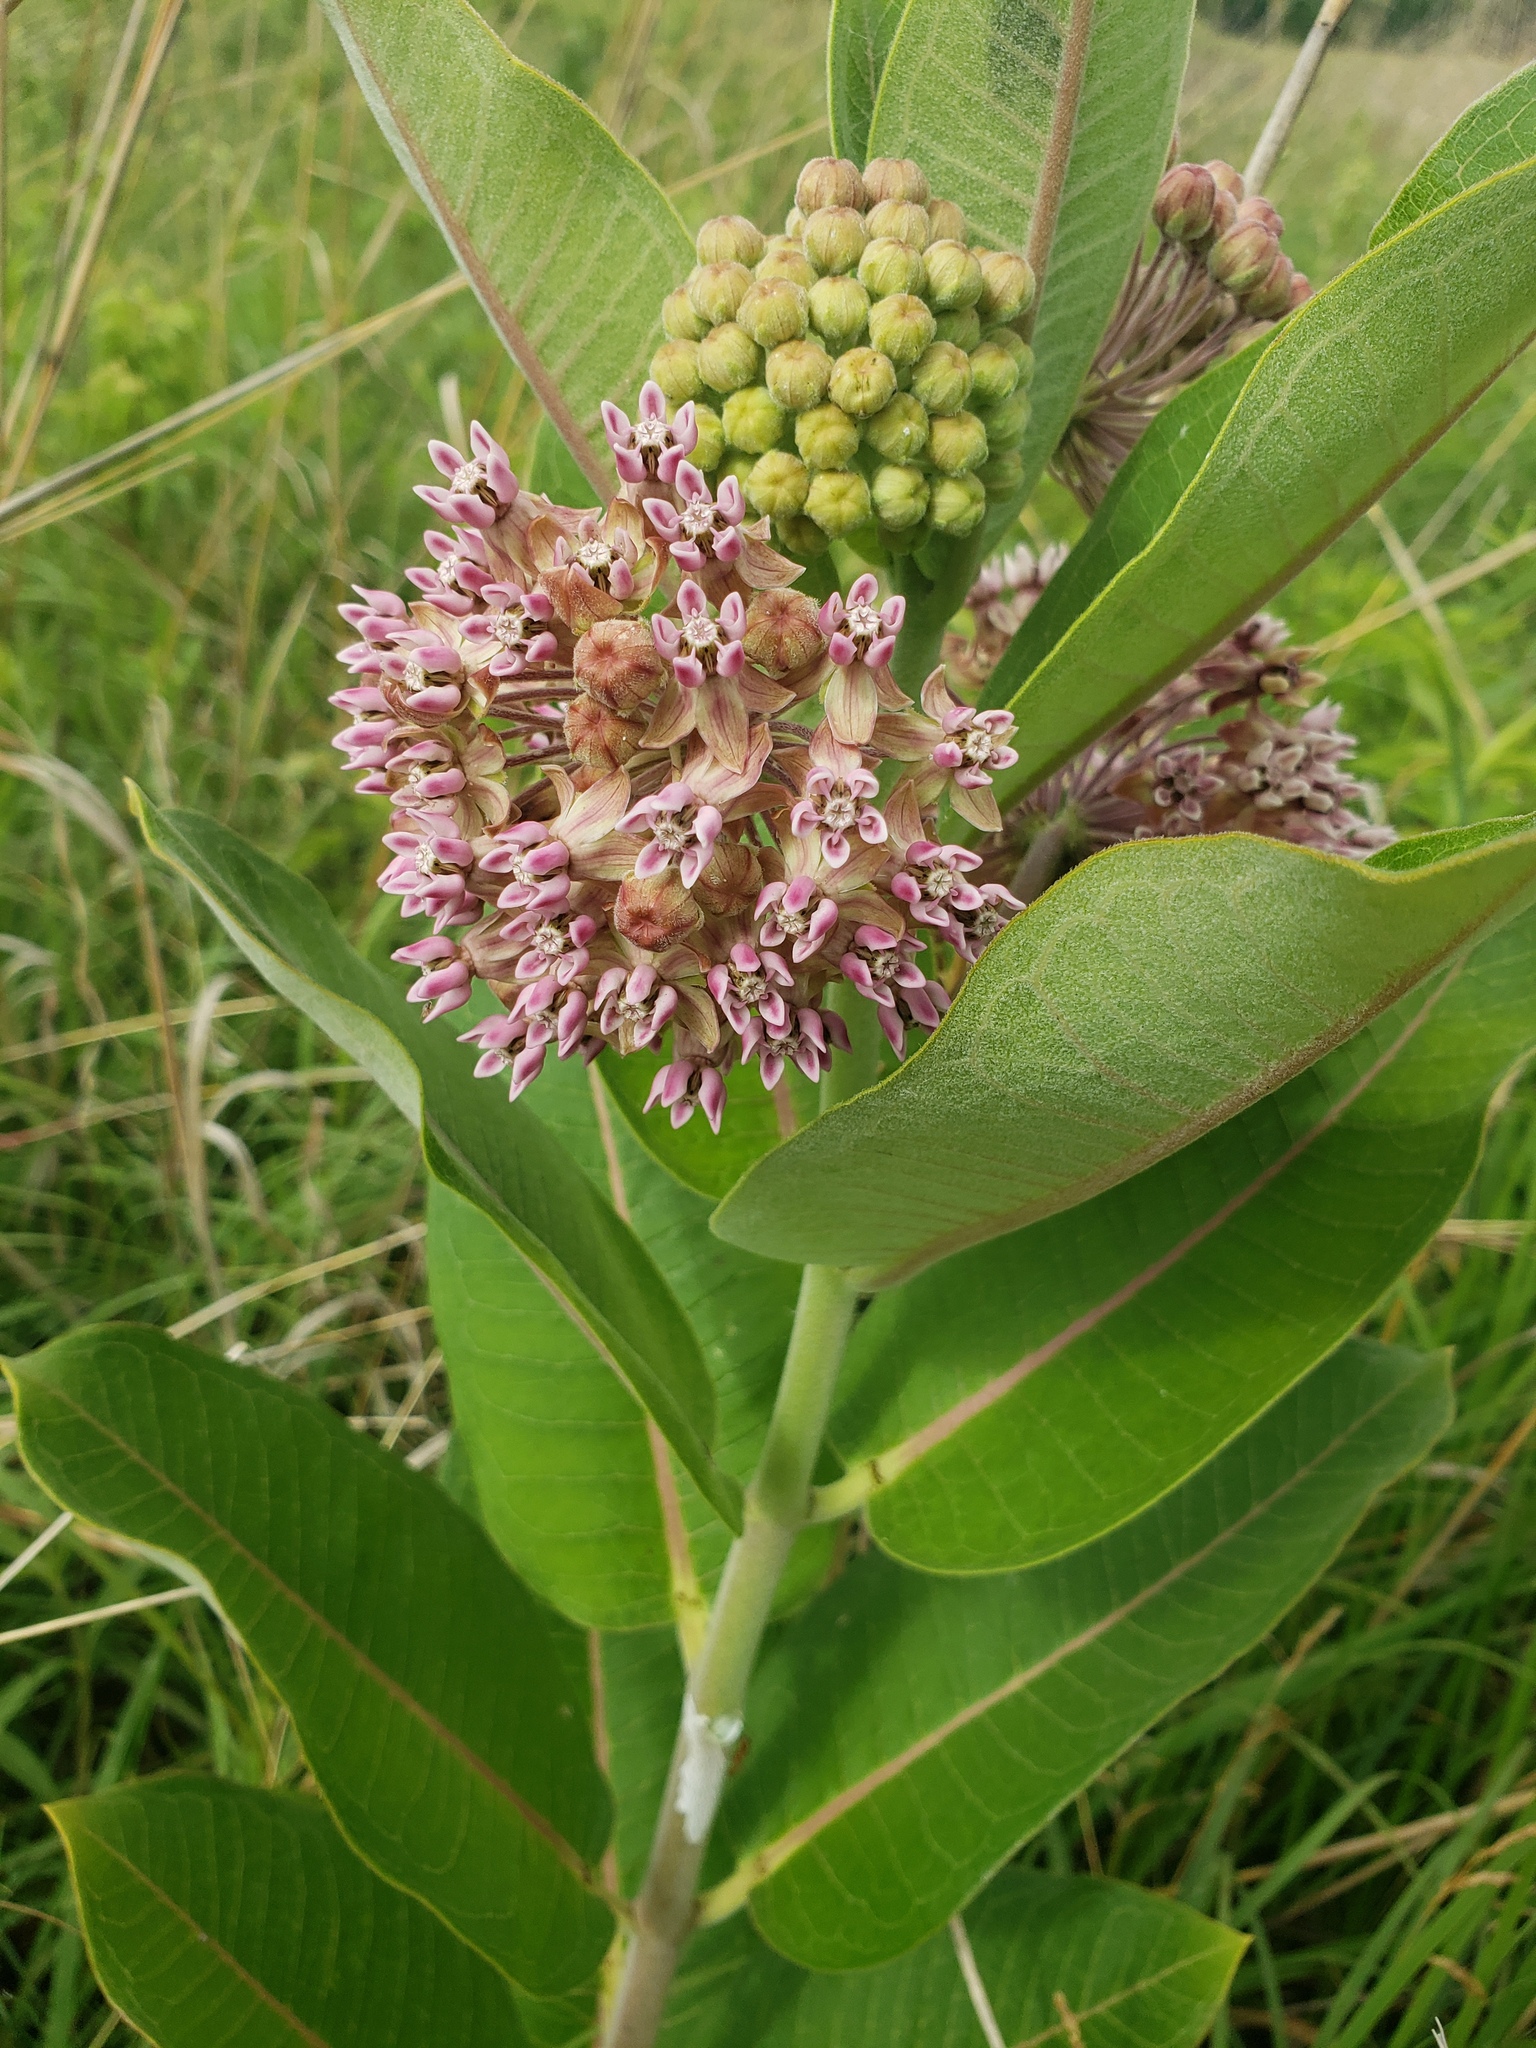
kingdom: Plantae
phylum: Tracheophyta
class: Magnoliopsida
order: Gentianales
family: Apocynaceae
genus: Asclepias
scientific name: Asclepias syriaca
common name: Common milkweed
